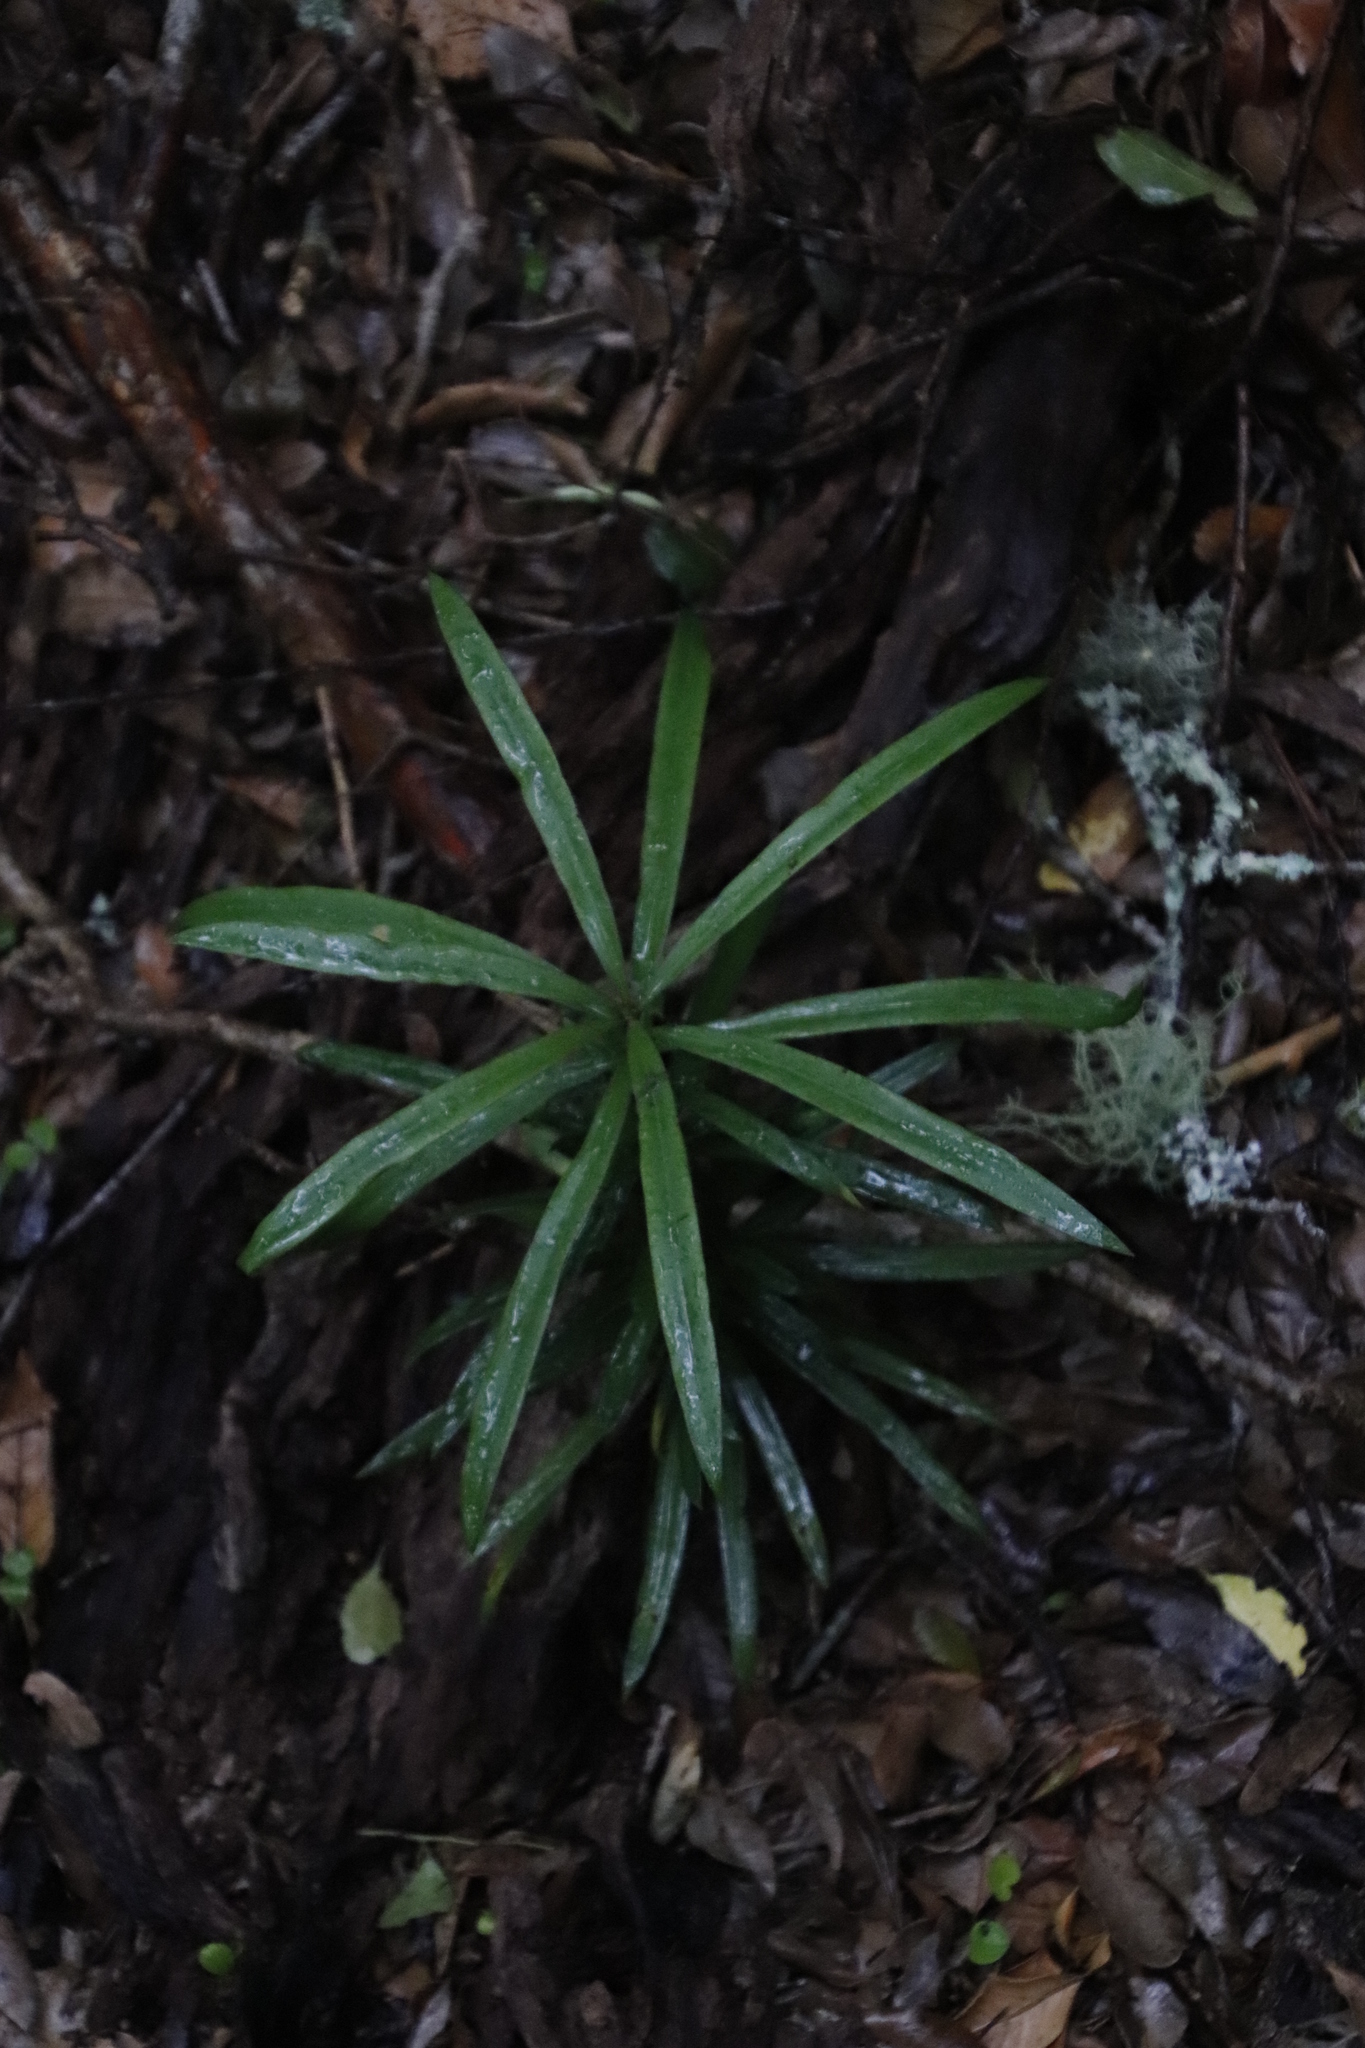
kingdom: Plantae
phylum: Tracheophyta
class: Pinopsida
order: Pinales
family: Podocarpaceae
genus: Podocarpus
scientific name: Podocarpus latifolius
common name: True yellowwood
